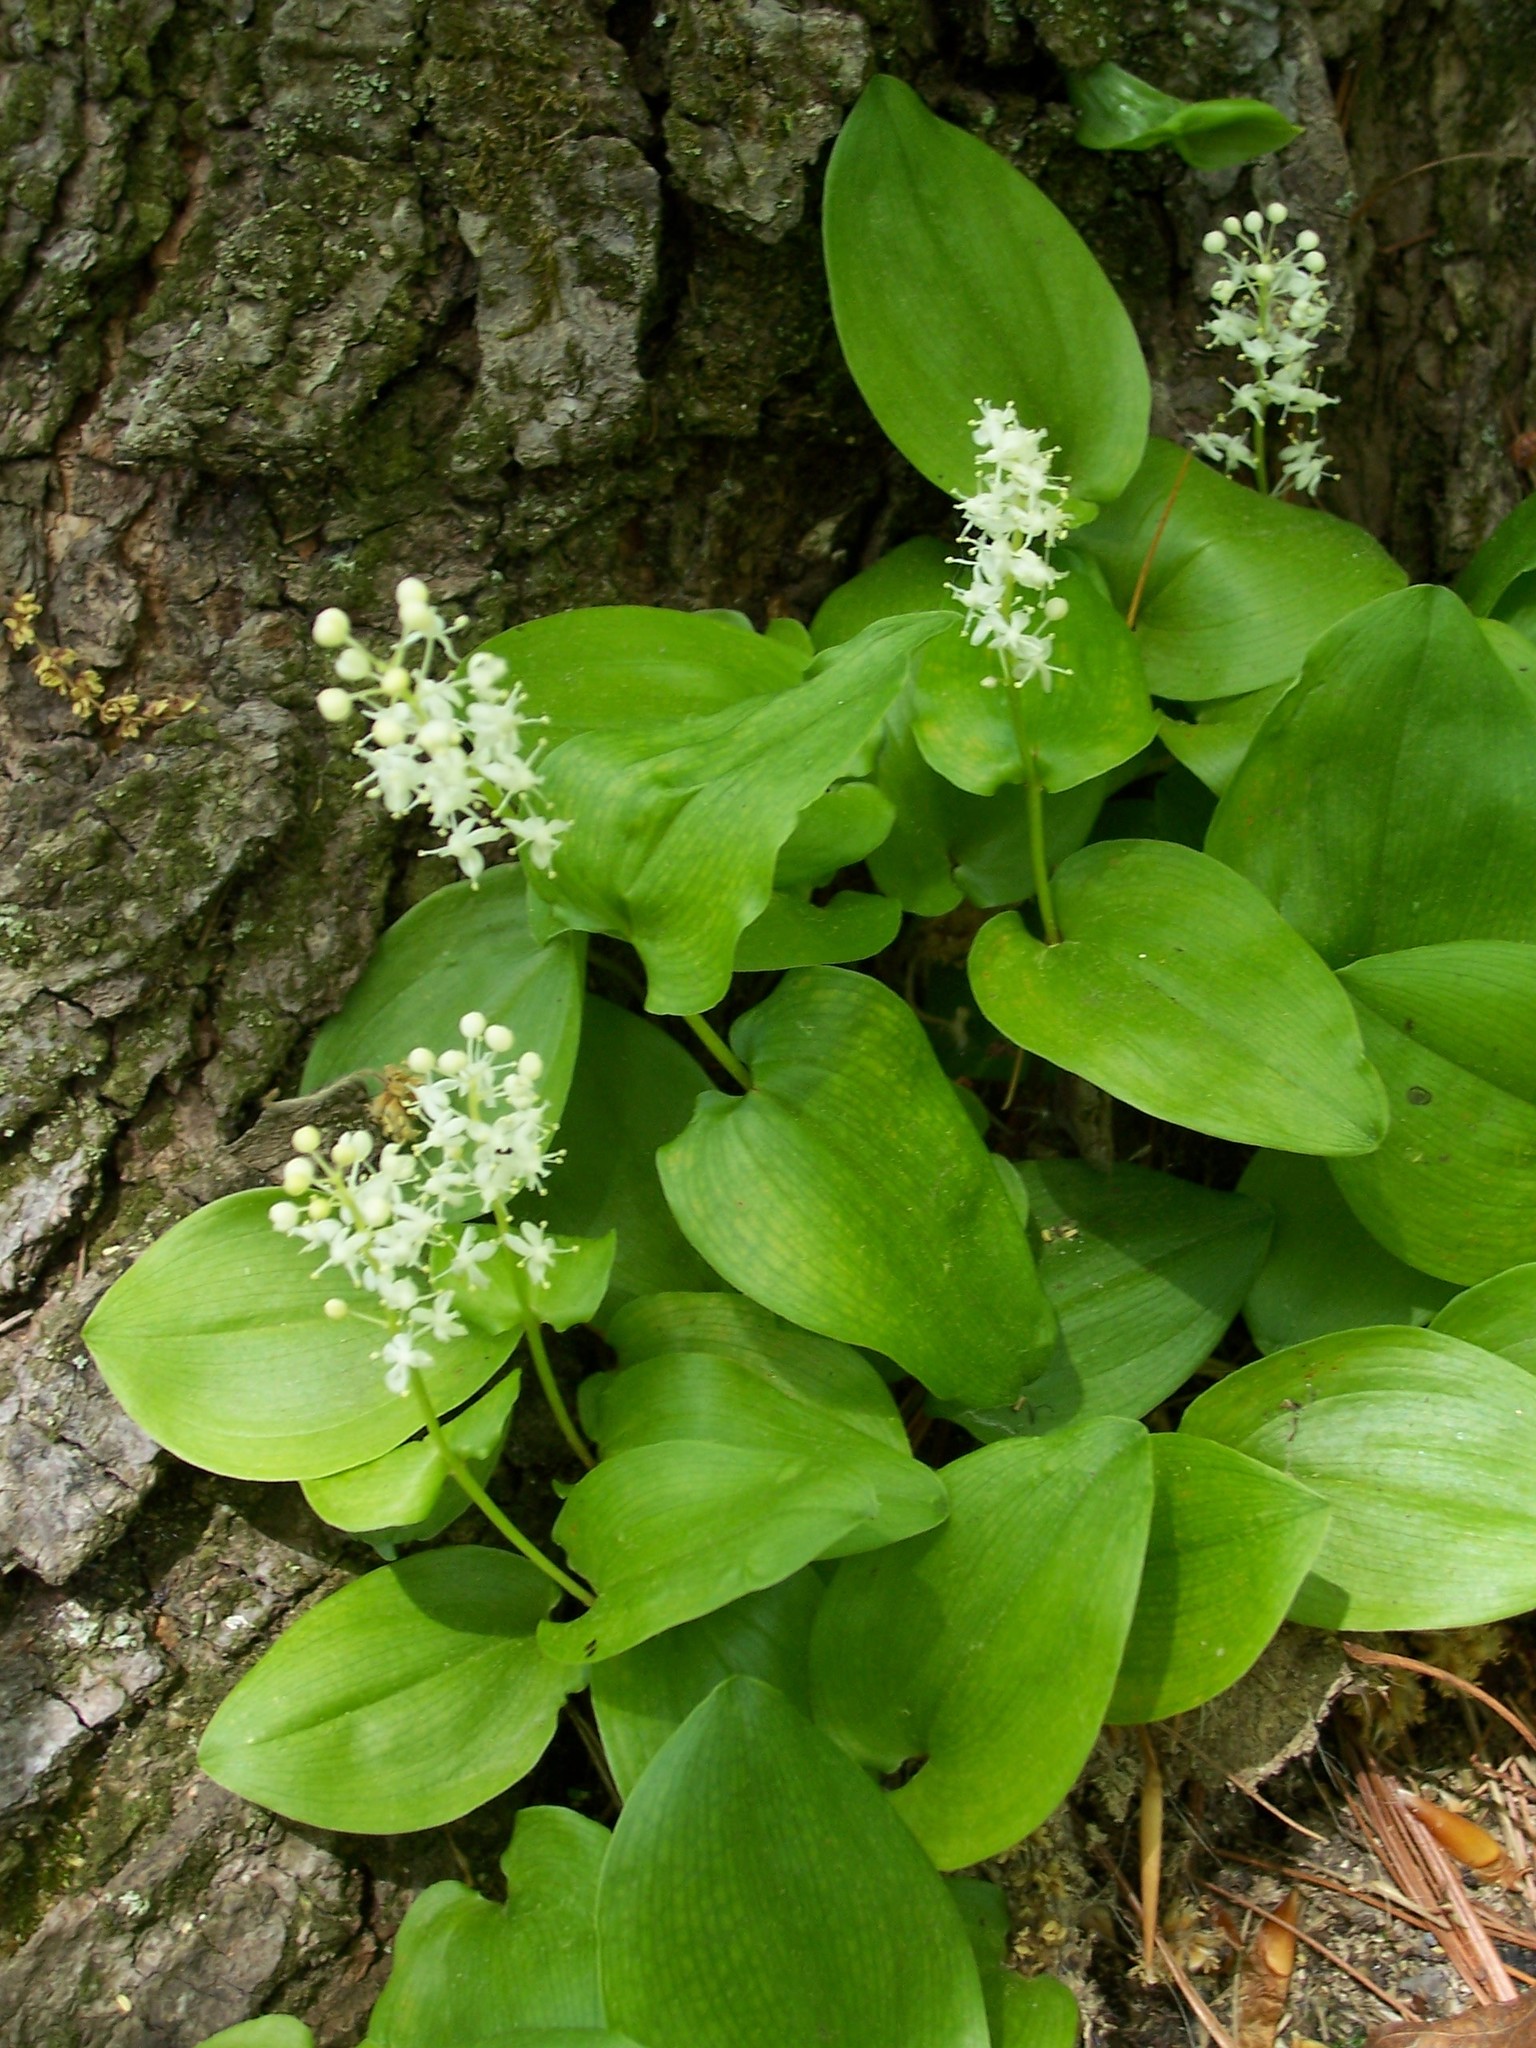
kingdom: Plantae
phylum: Tracheophyta
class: Liliopsida
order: Asparagales
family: Asparagaceae
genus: Maianthemum
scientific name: Maianthemum canadense
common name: False lily-of-the-valley
